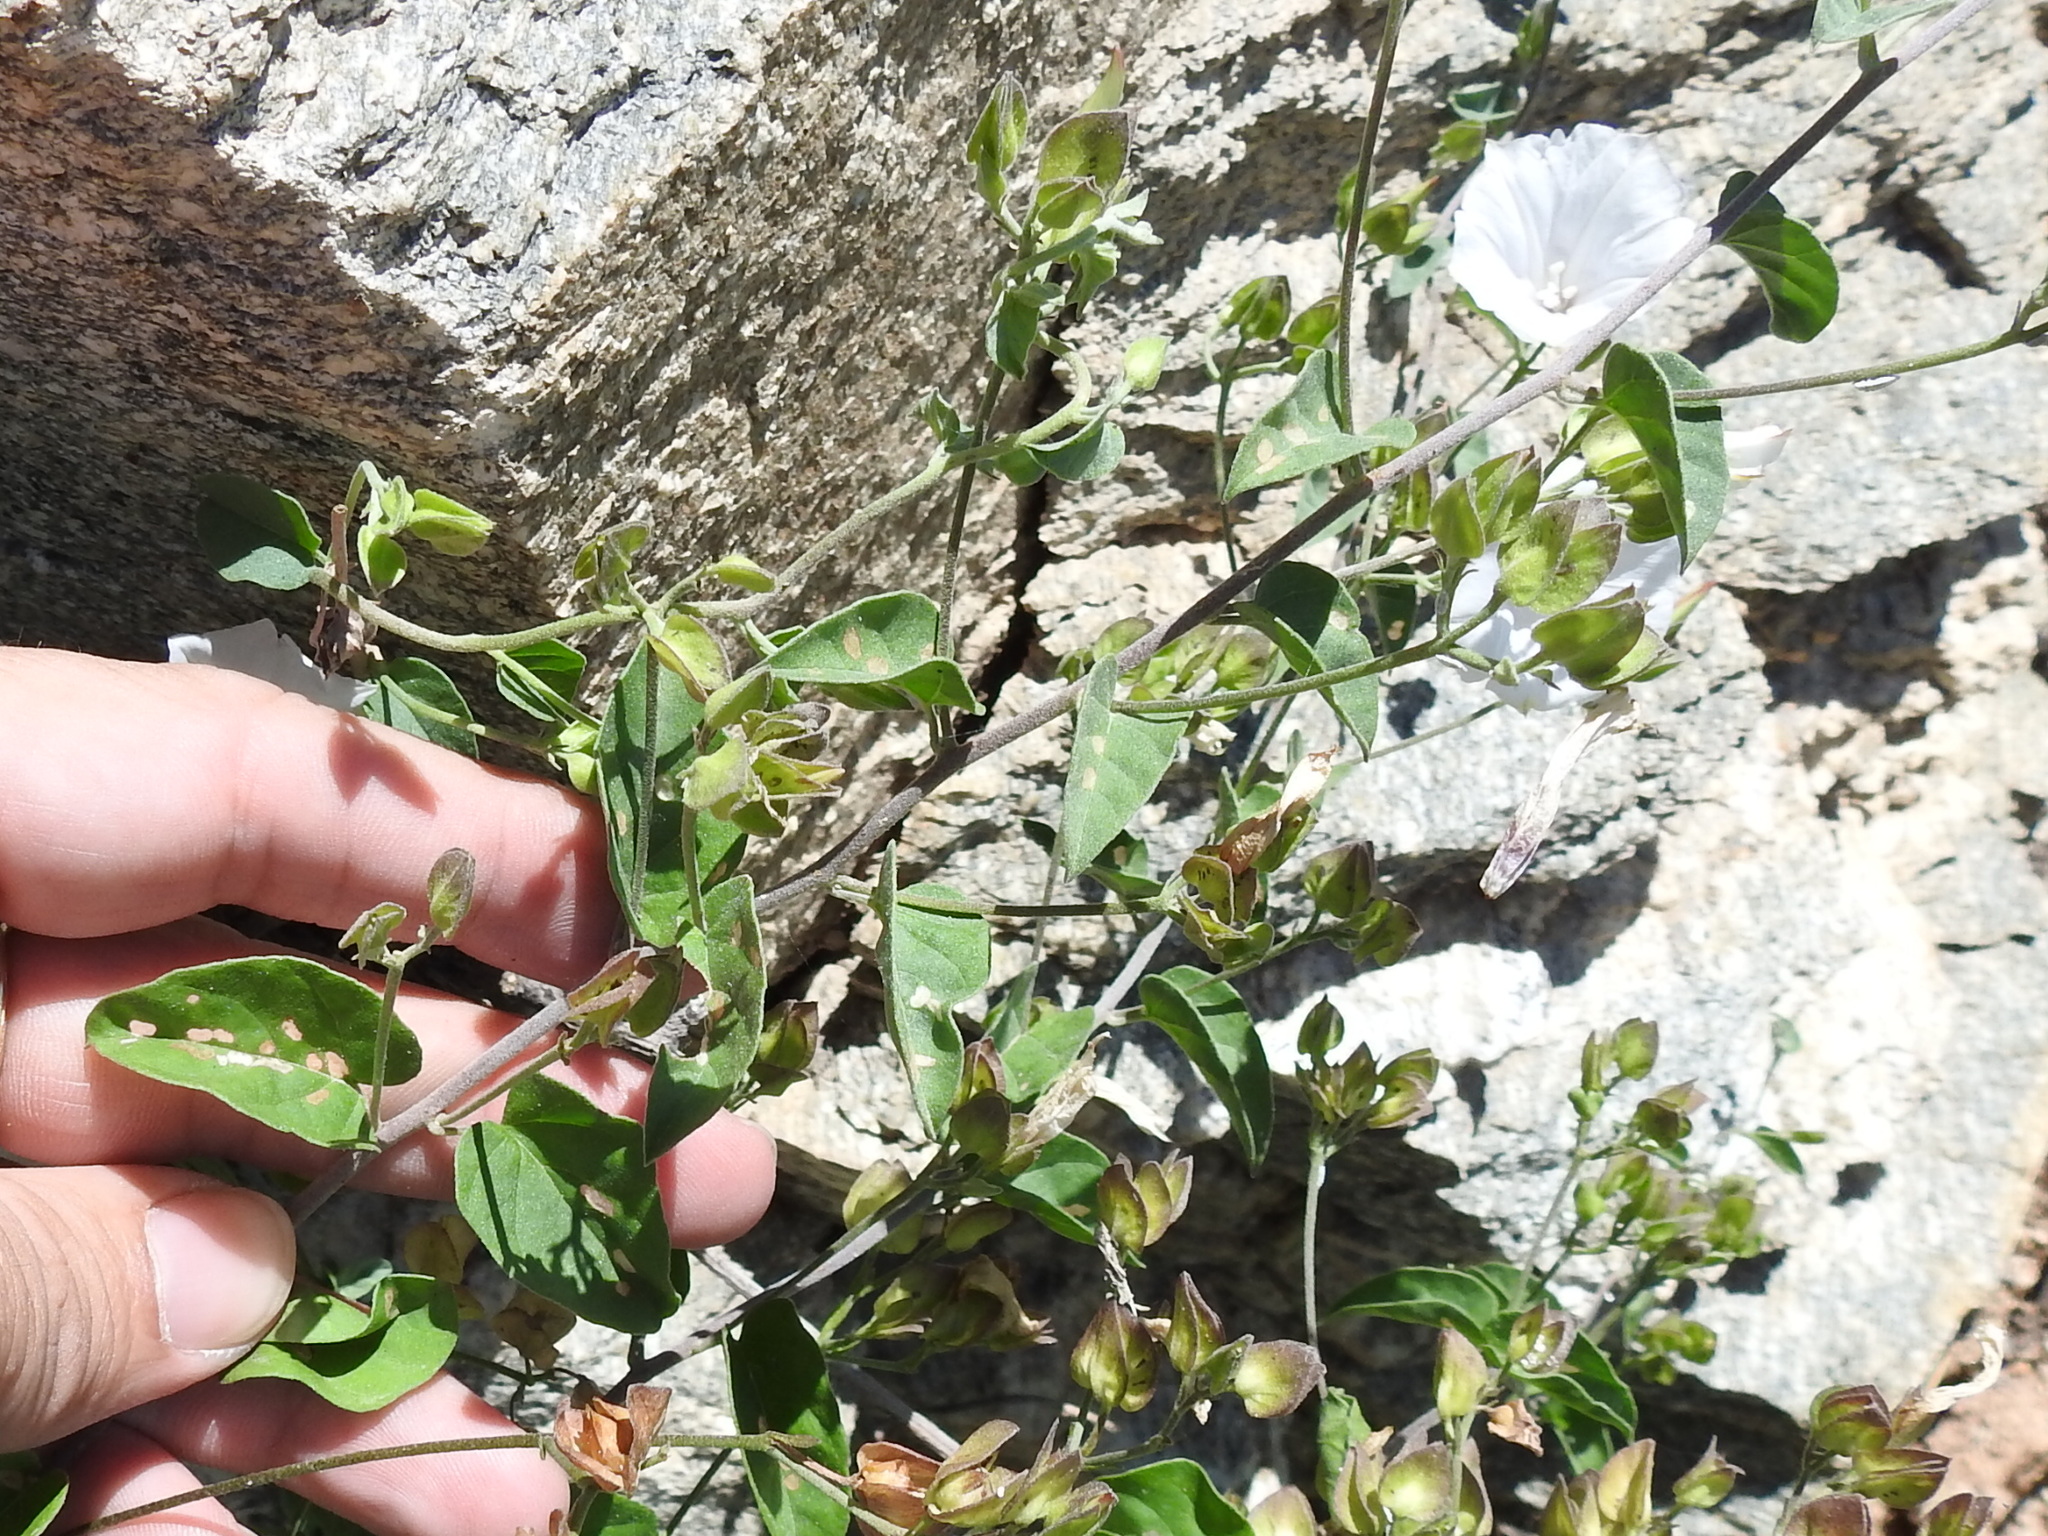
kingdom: Plantae
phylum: Tracheophyta
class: Magnoliopsida
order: Solanales
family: Convolvulaceae
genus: Jacquemontia
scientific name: Jacquemontia pringlei
